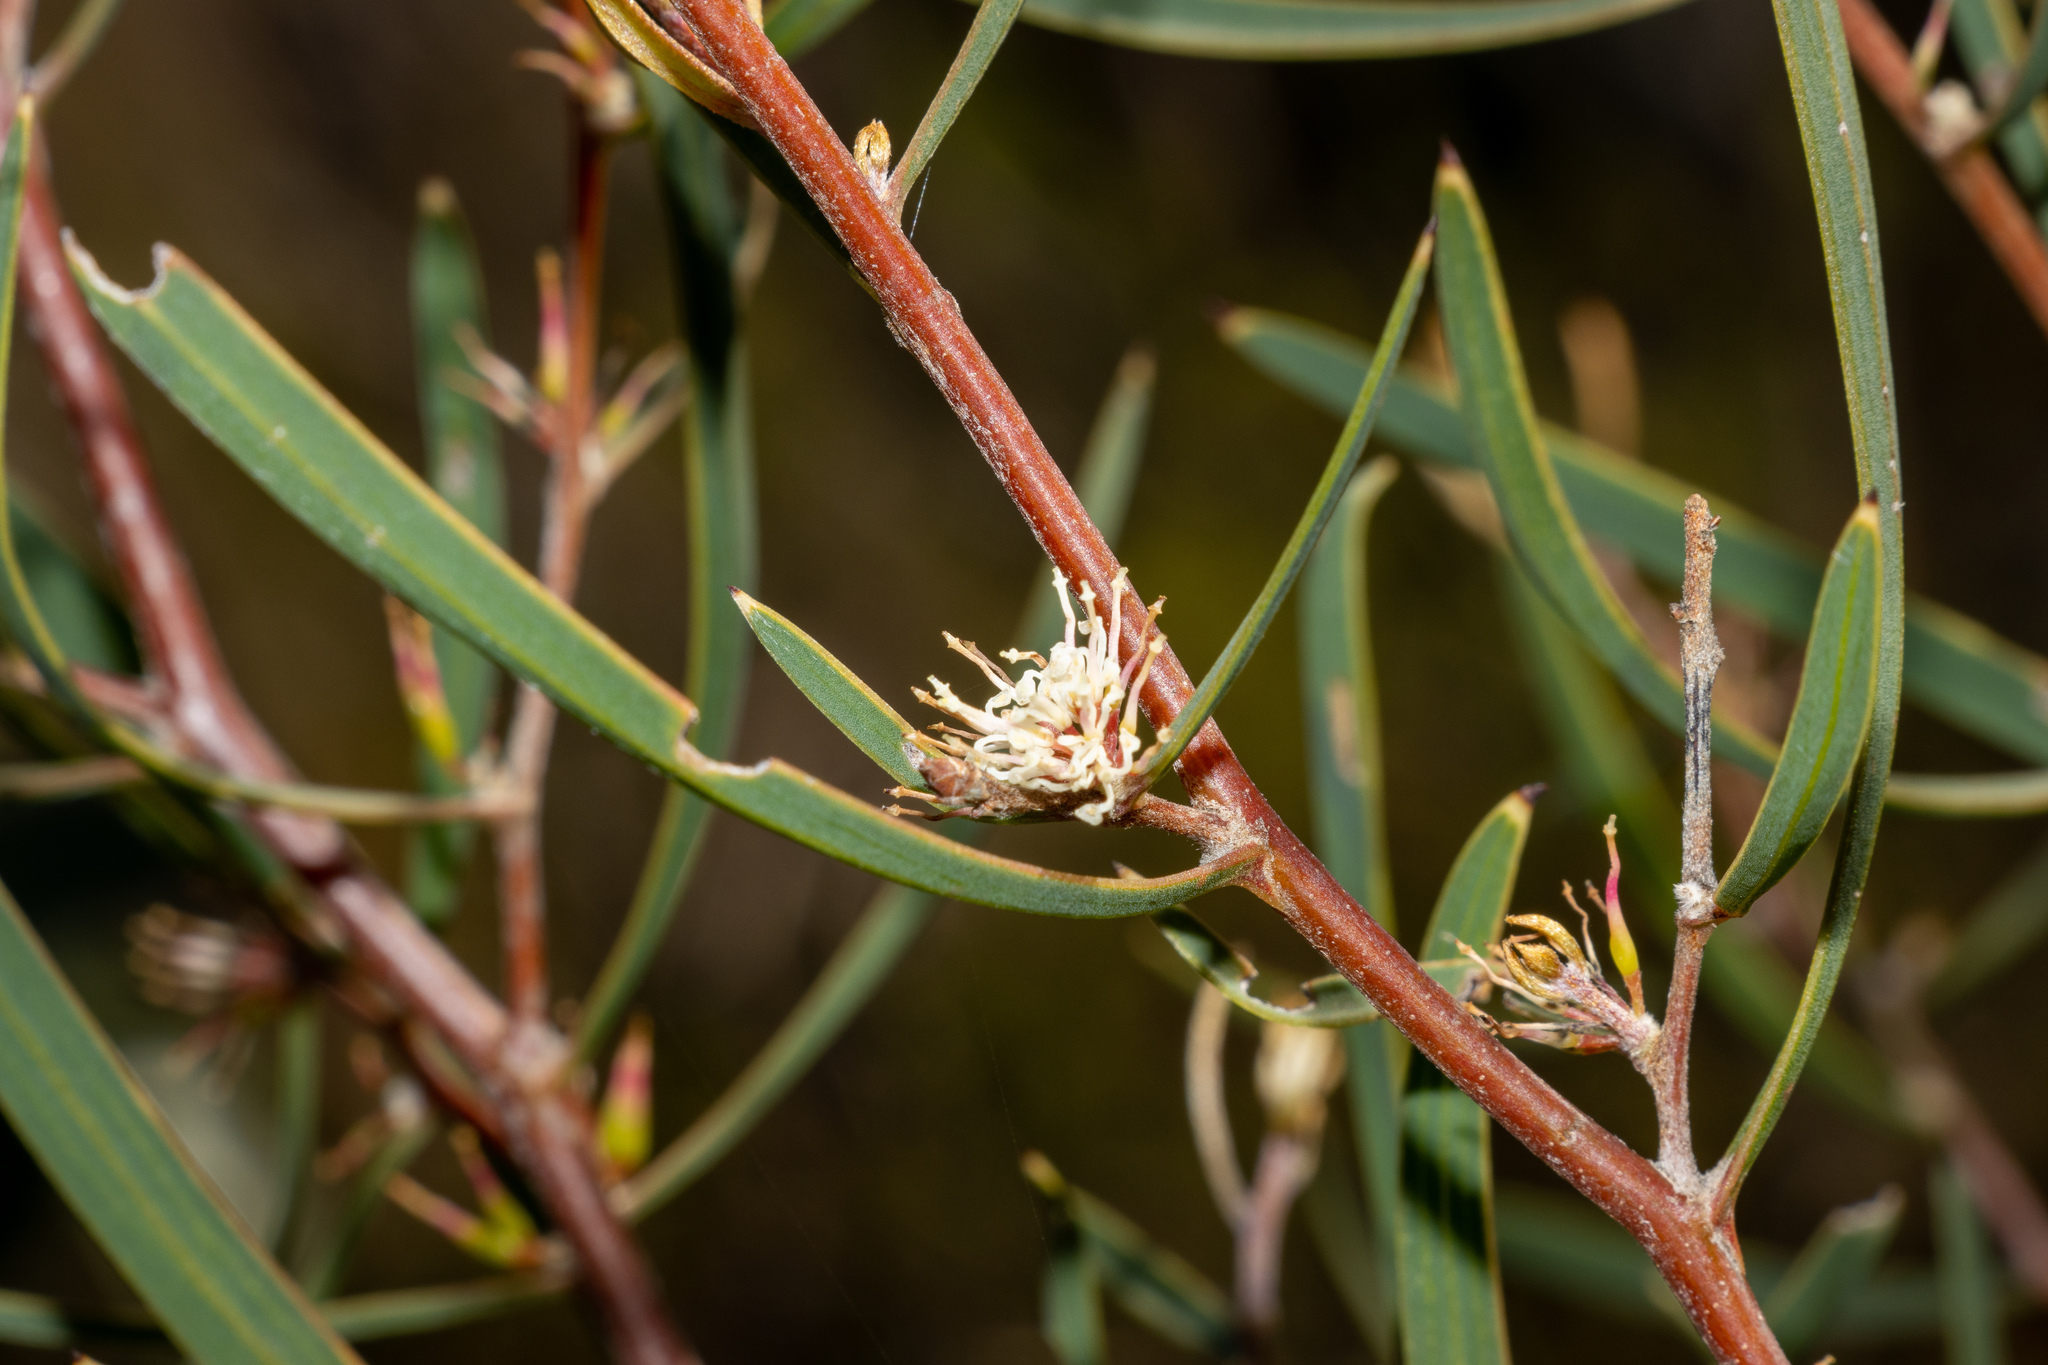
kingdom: Plantae
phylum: Tracheophyta
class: Magnoliopsida
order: Proteales
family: Proteaceae
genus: Hakea
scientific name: Hakea carinata
